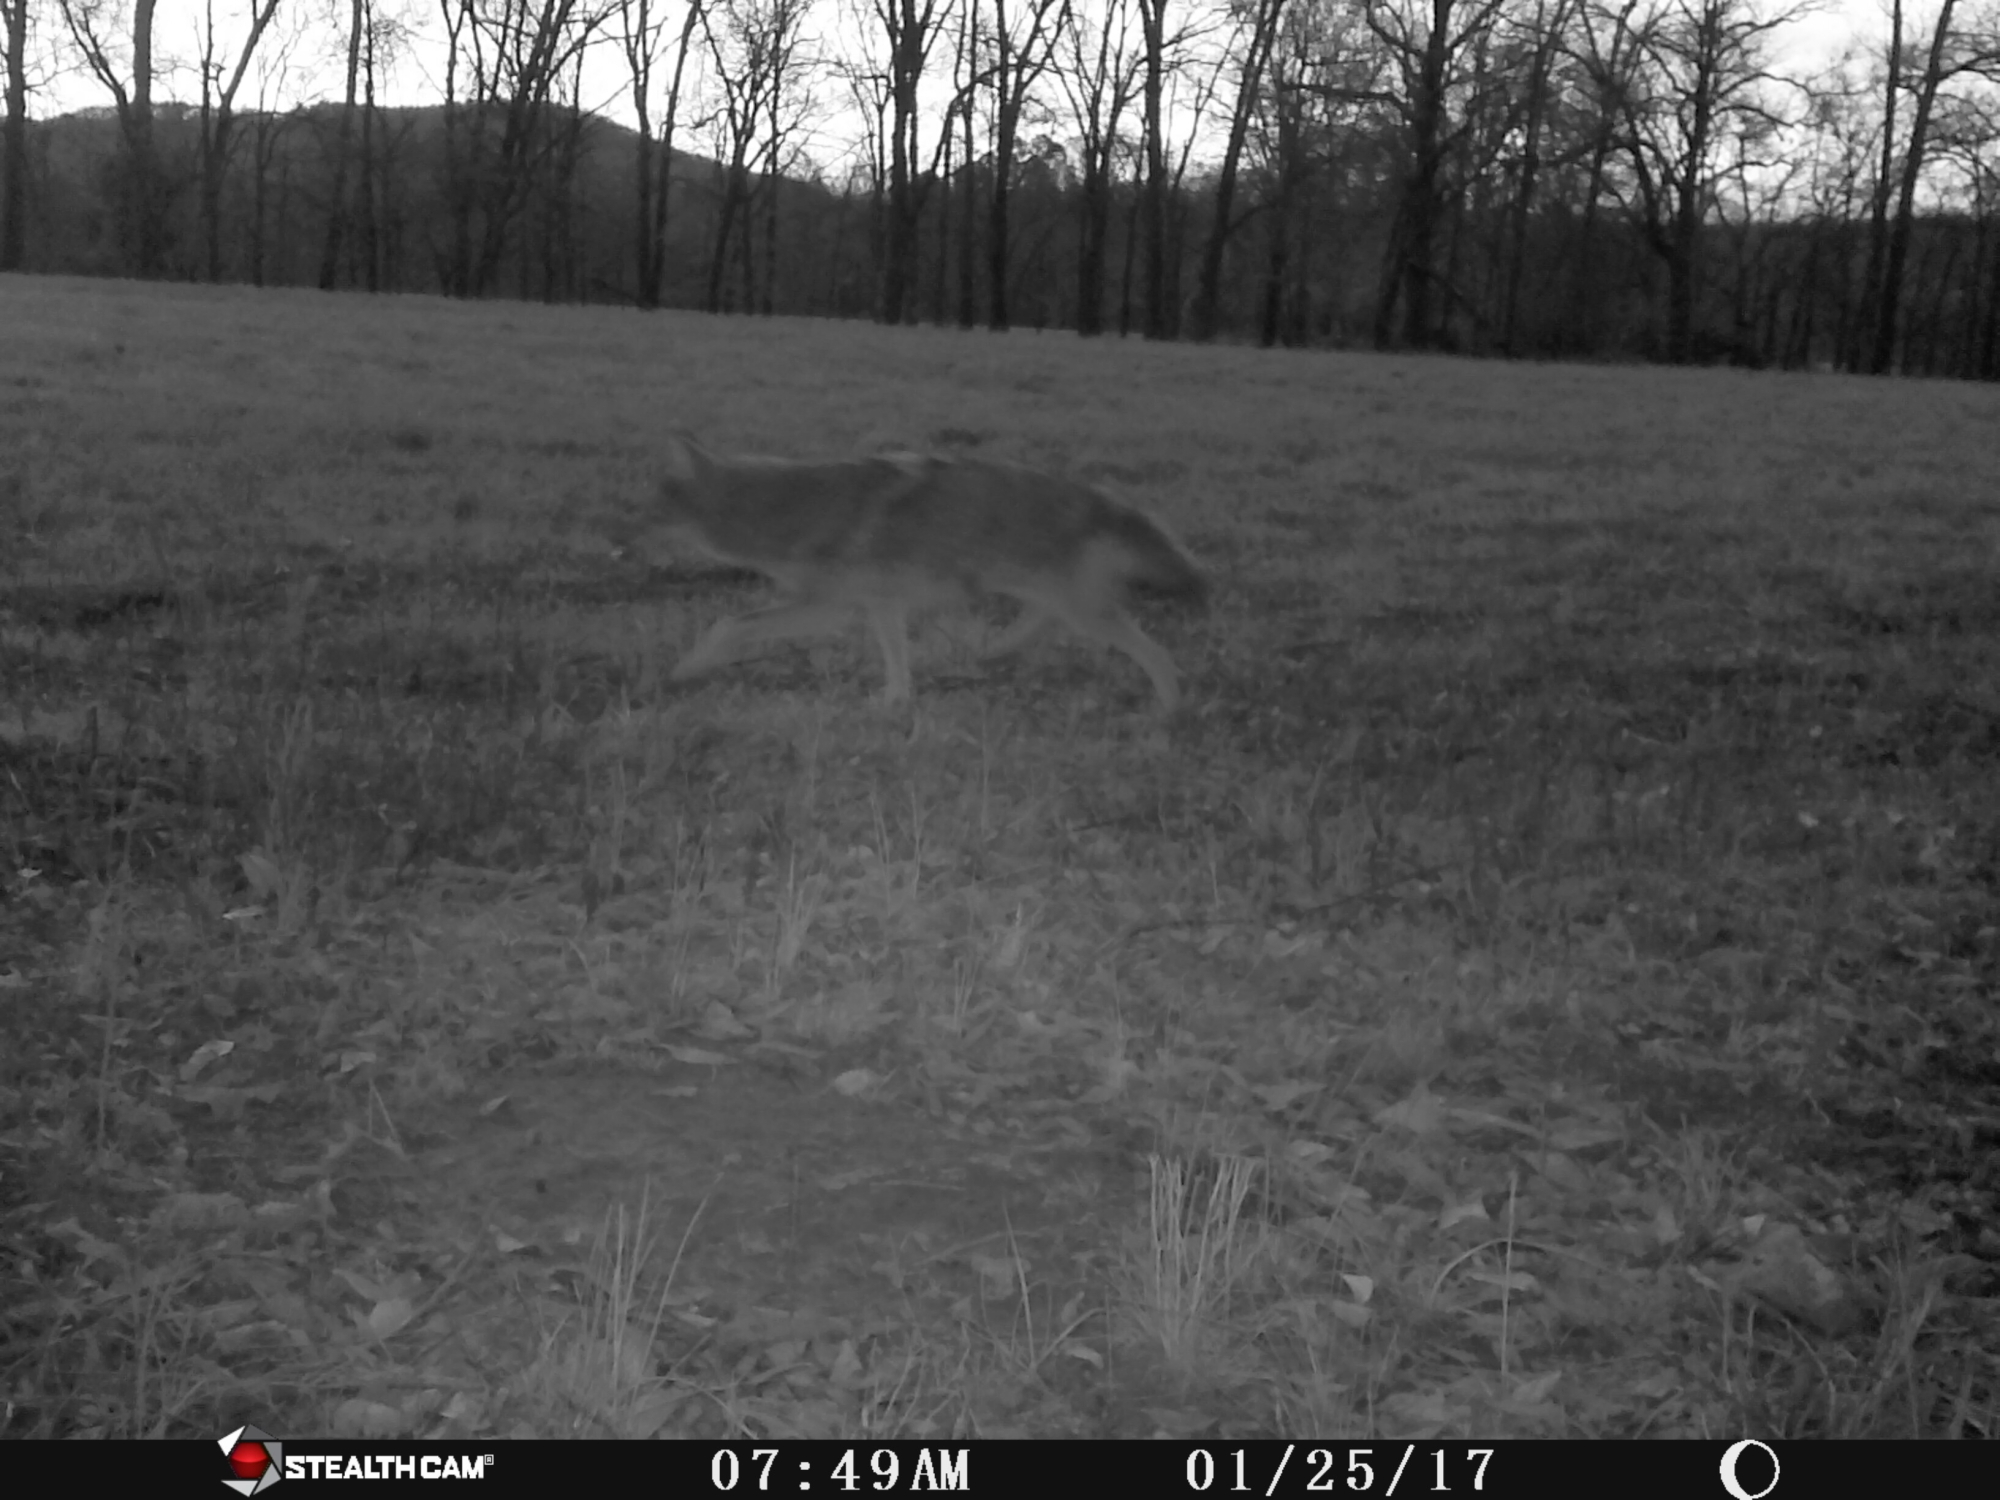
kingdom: Animalia
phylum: Chordata
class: Mammalia
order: Carnivora
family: Canidae
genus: Canis
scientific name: Canis latrans
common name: Coyote
